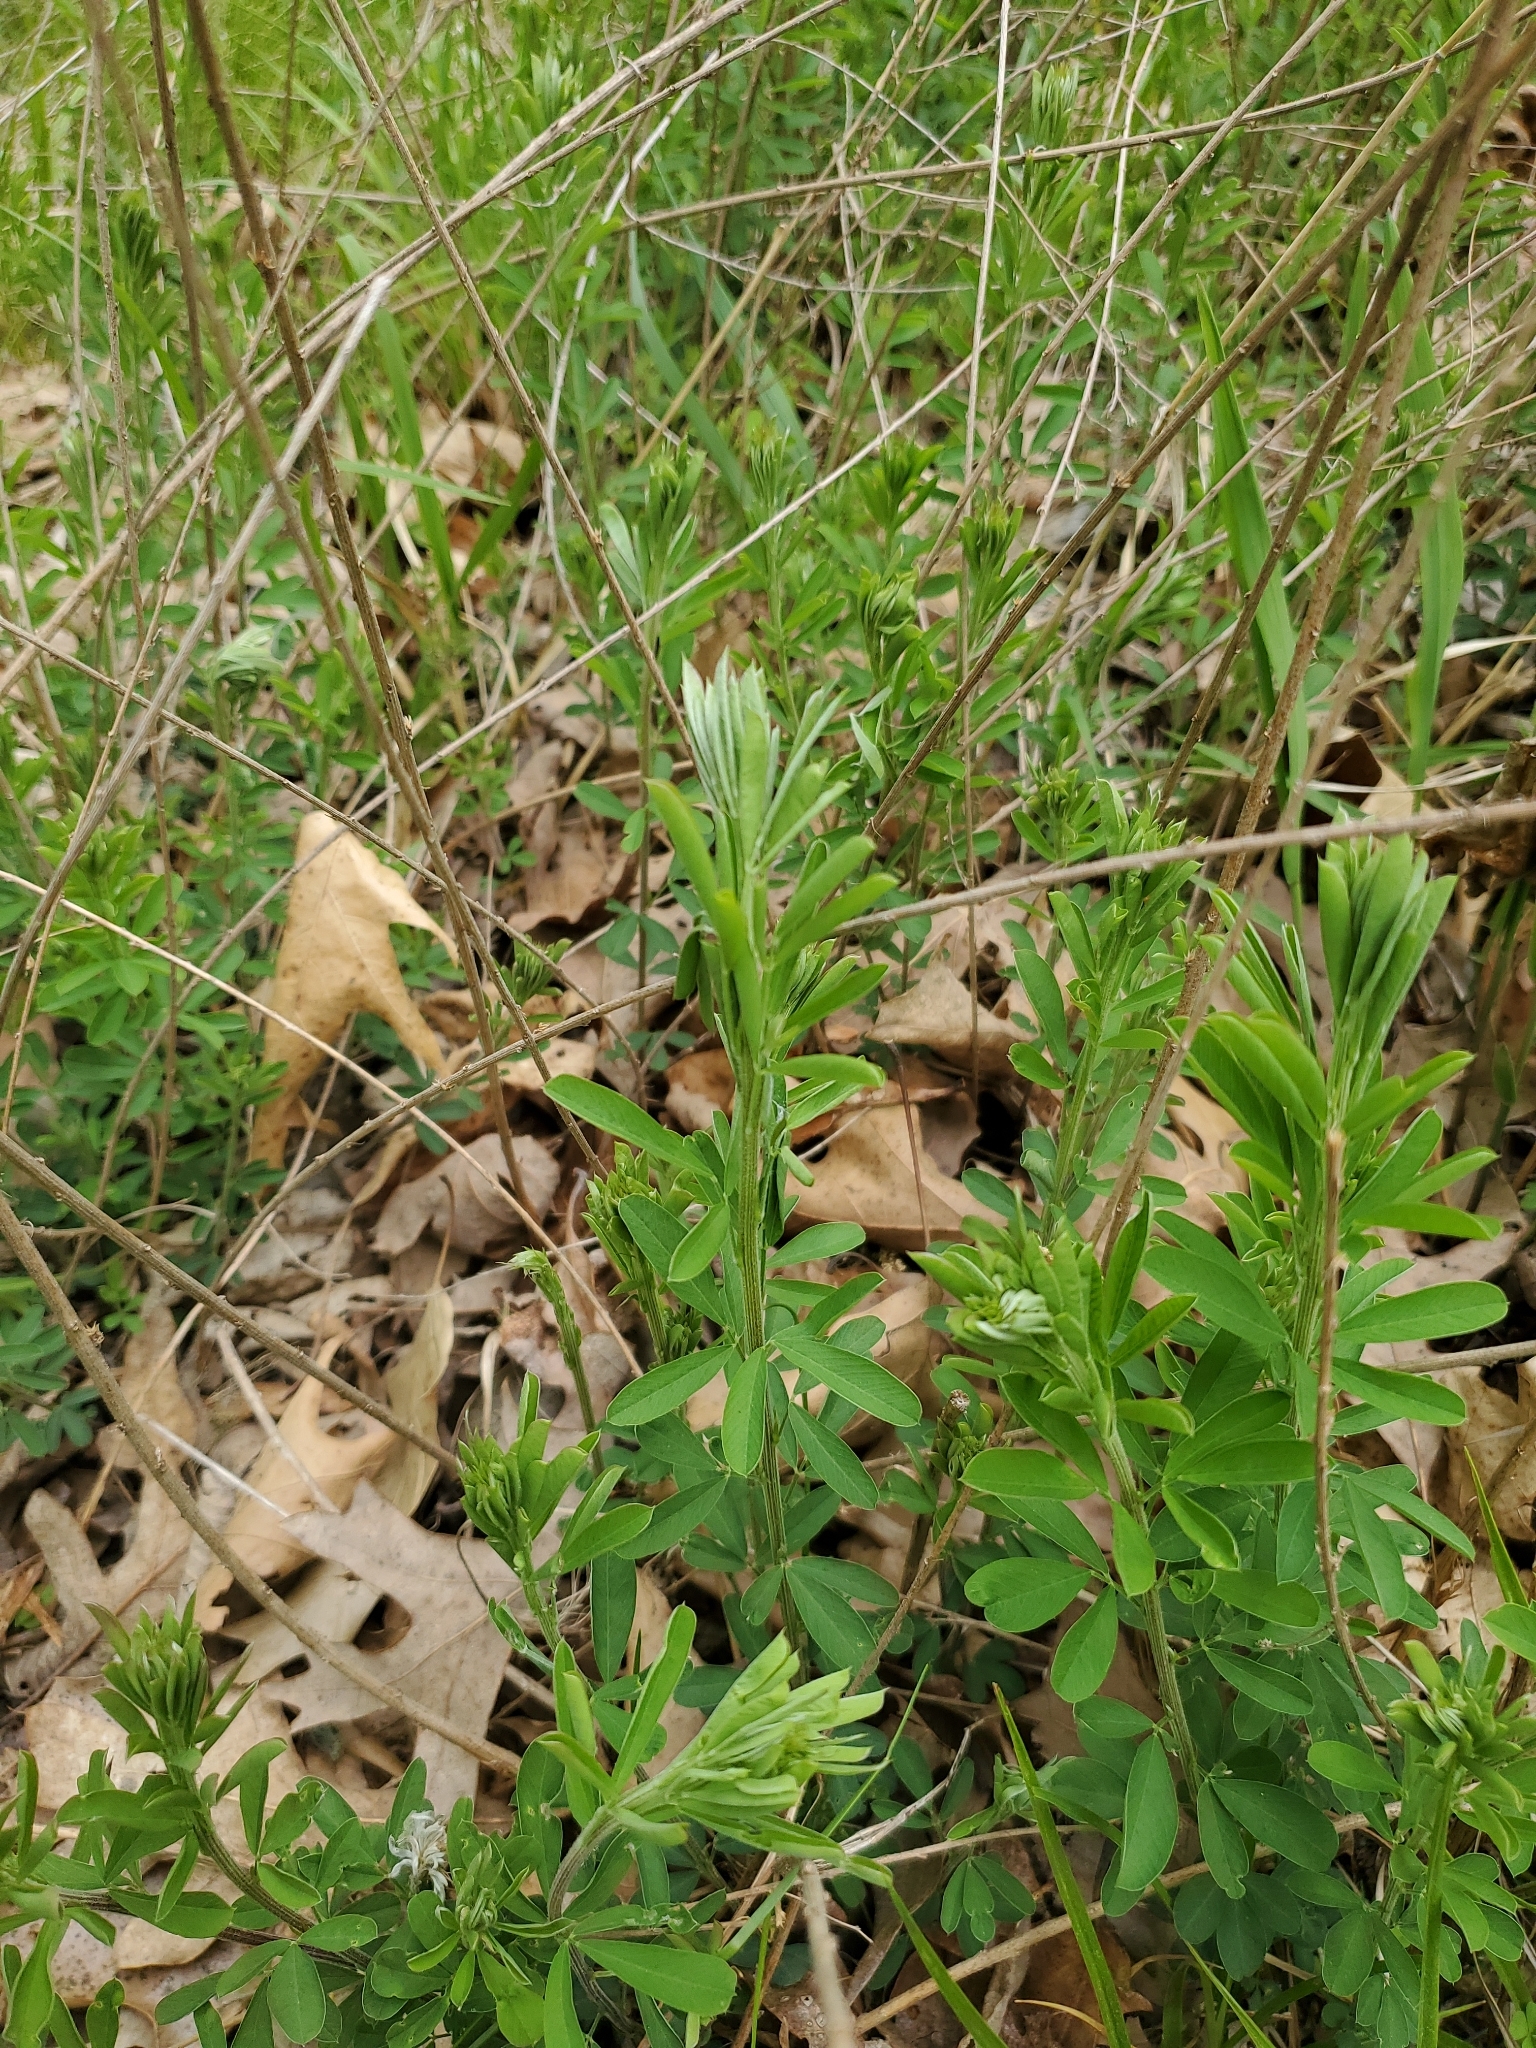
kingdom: Plantae
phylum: Tracheophyta
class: Magnoliopsida
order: Fabales
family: Fabaceae
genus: Lespedeza
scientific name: Lespedeza cuneata
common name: Chinese bush-clover
